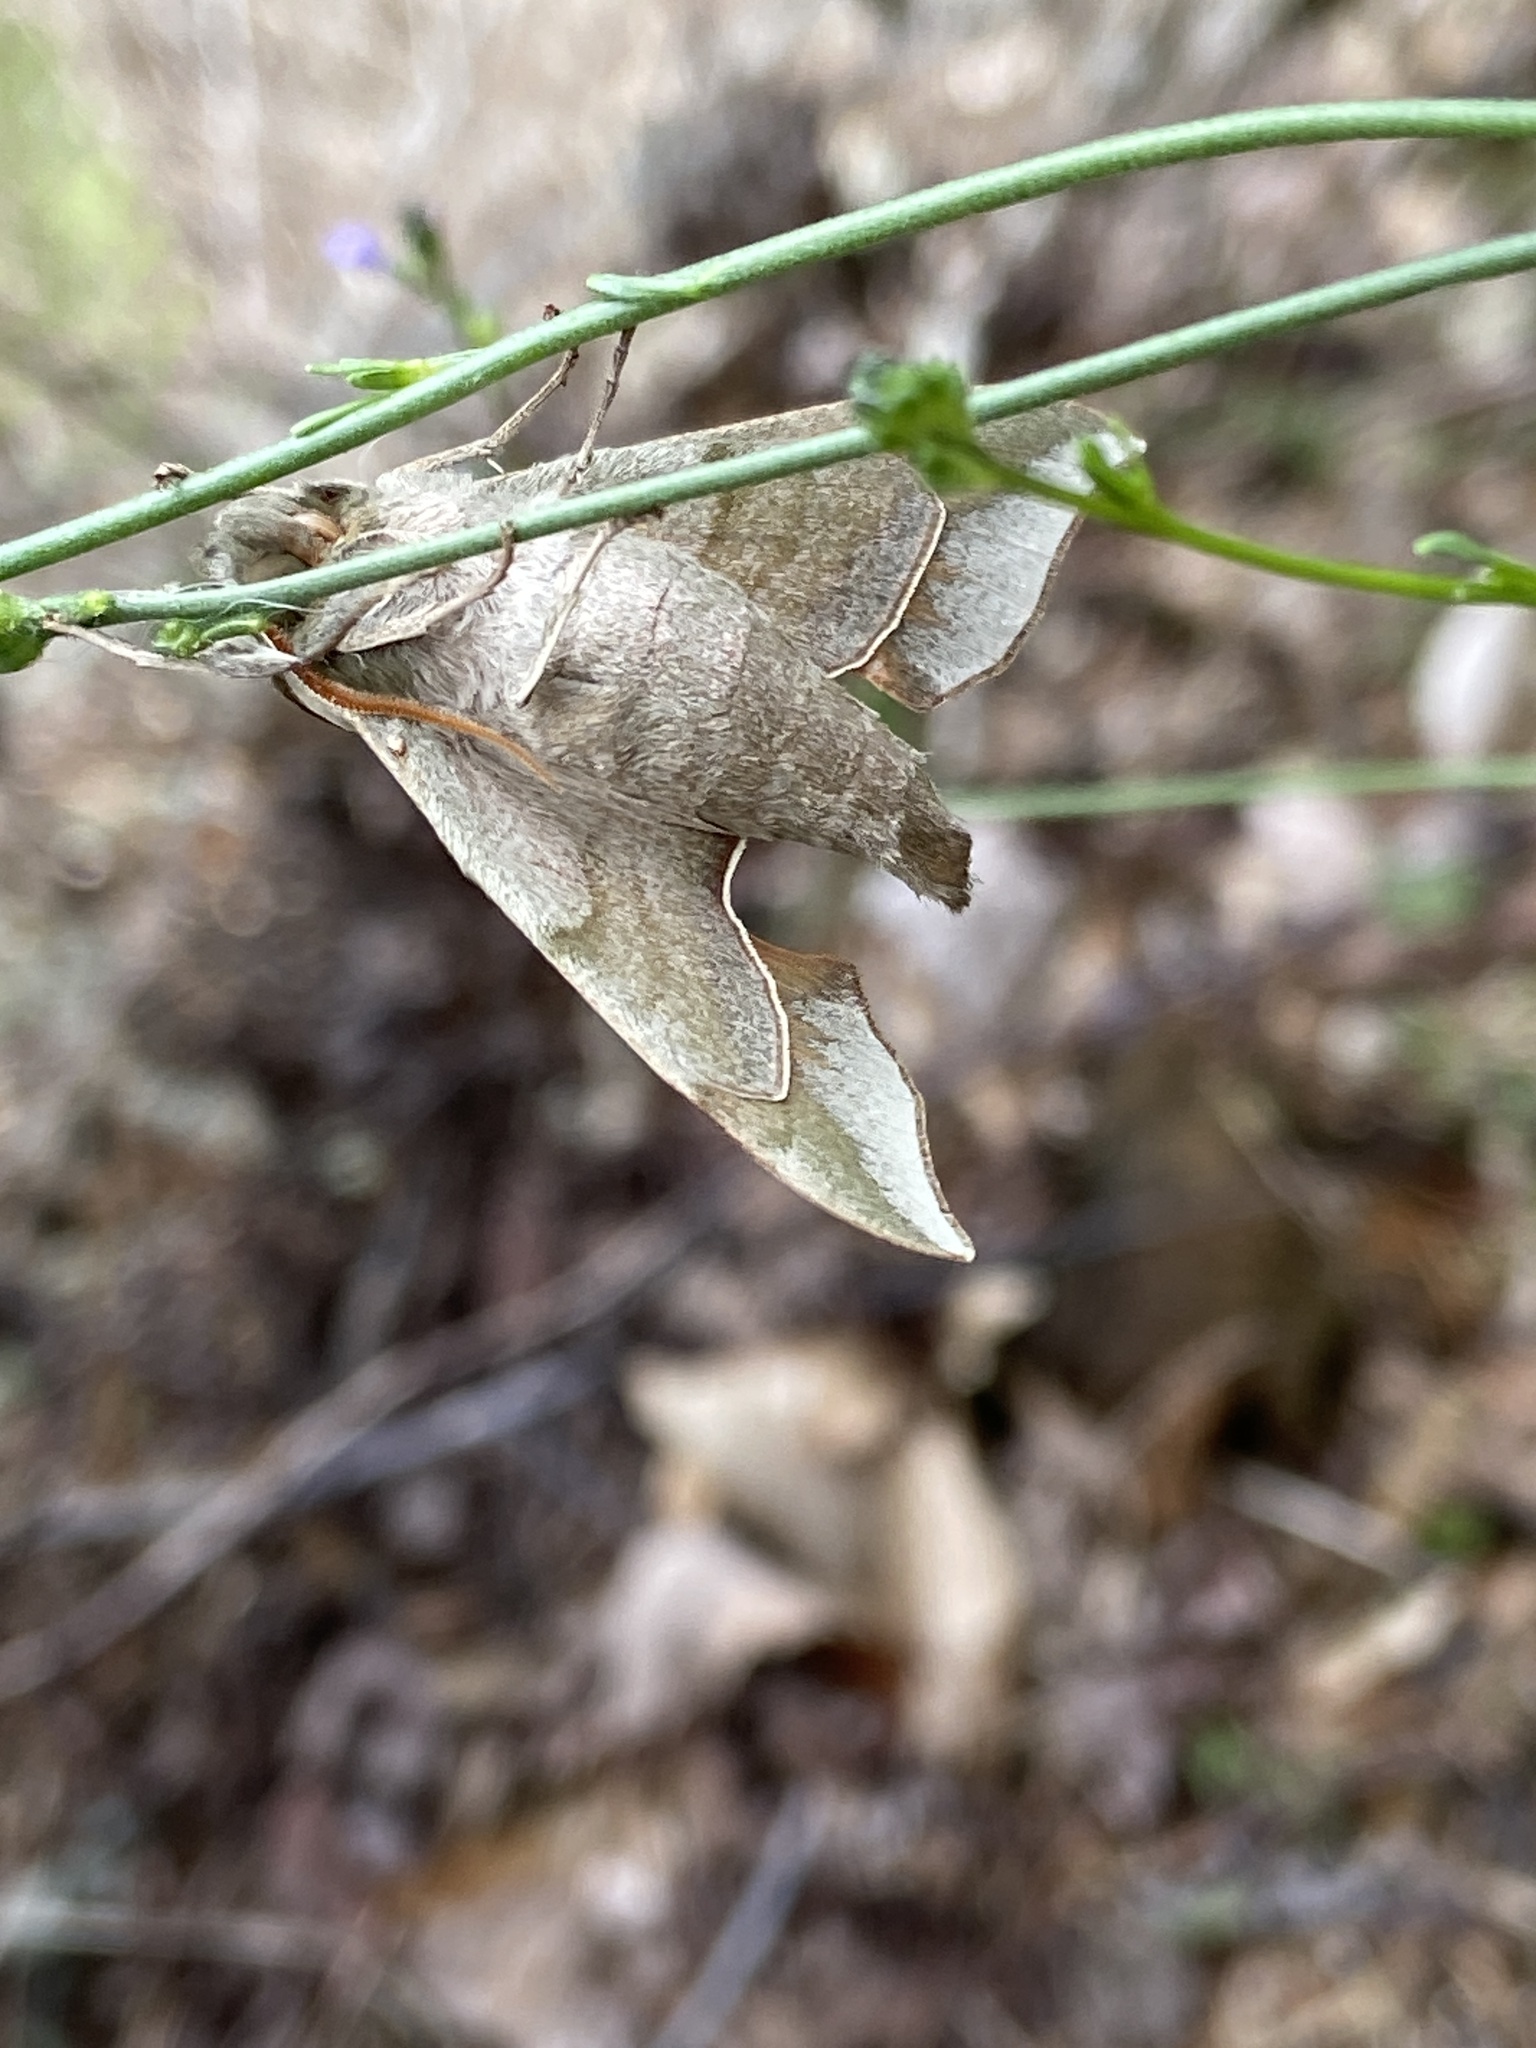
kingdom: Animalia
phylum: Arthropoda
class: Insecta
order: Lepidoptera
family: Sphingidae
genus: Darapsa
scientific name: Darapsa myron
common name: Hog sphinx
